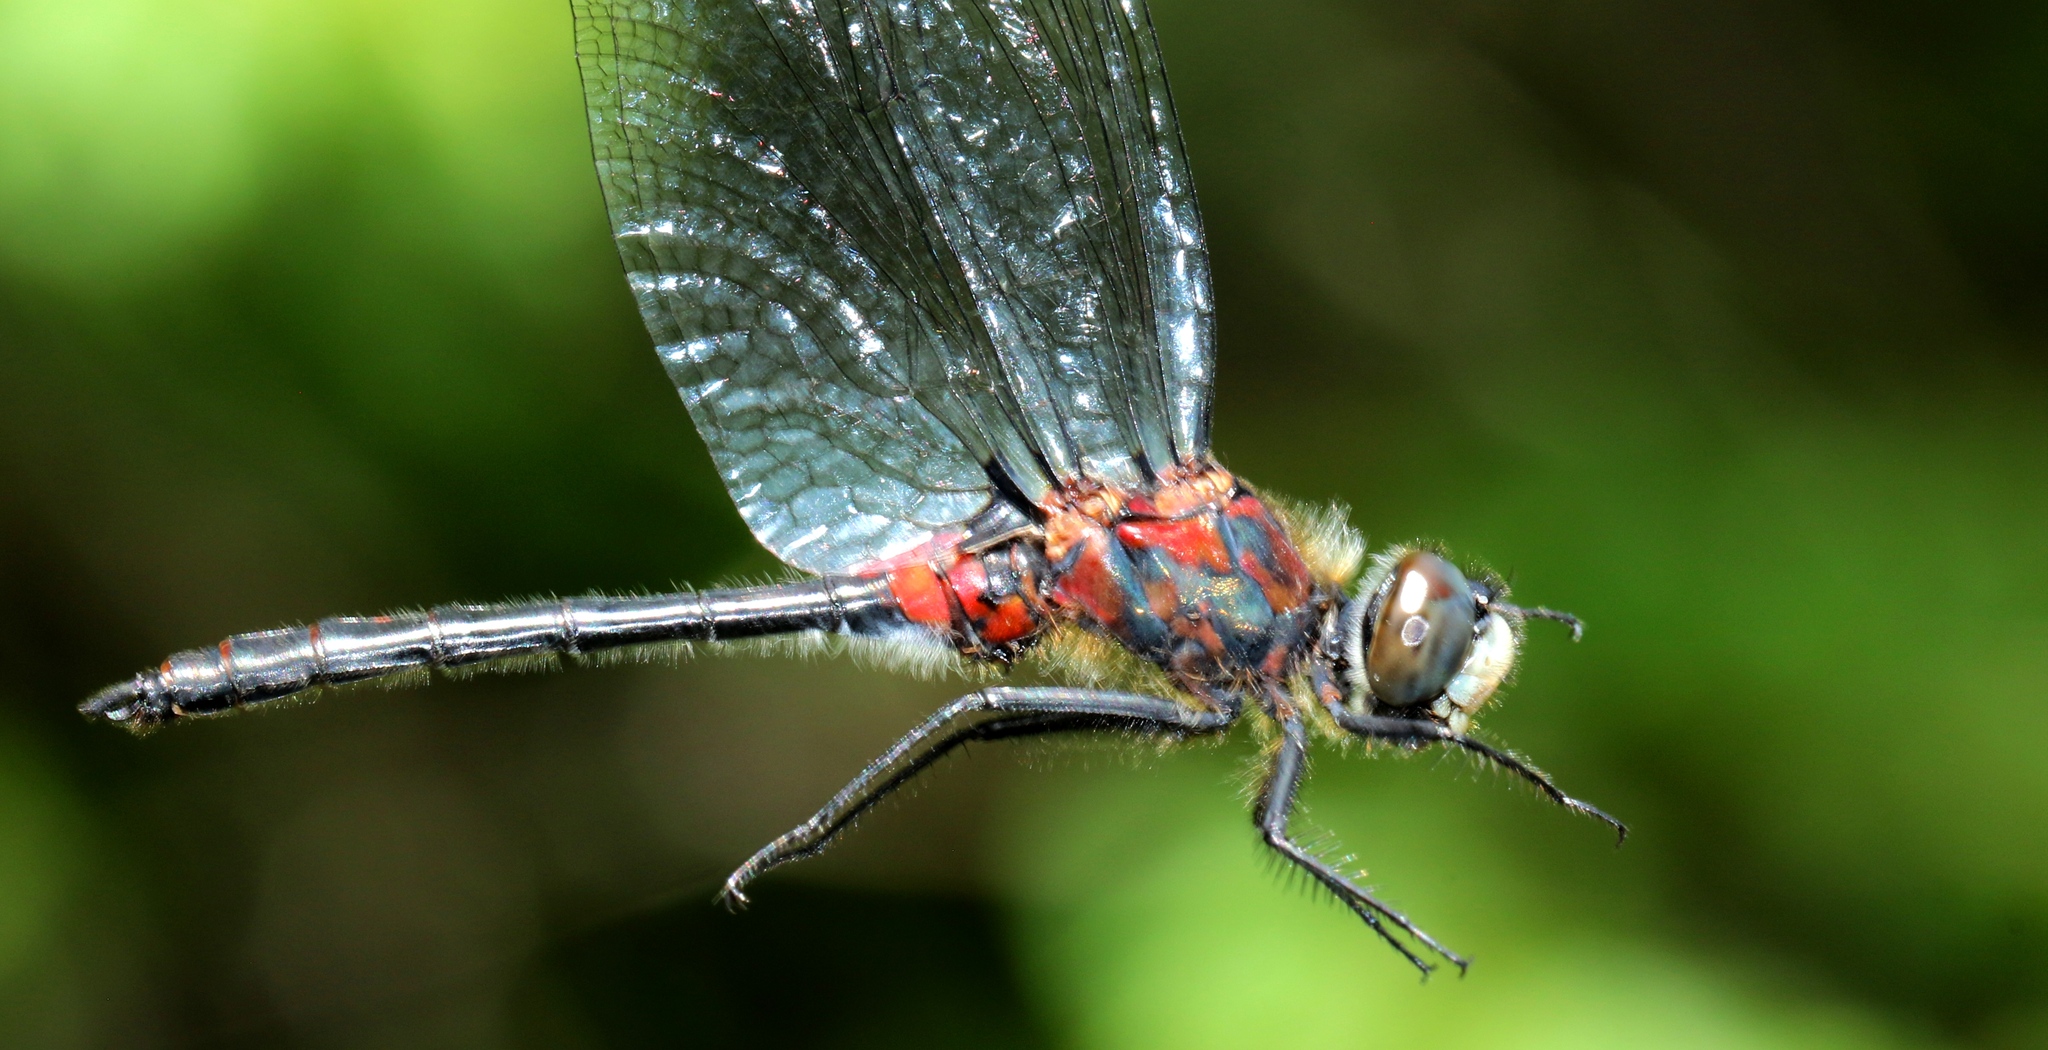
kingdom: Animalia
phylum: Arthropoda
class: Insecta
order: Odonata
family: Libellulidae
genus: Leucorrhinia
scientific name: Leucorrhinia proxima
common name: Belted whiteface
